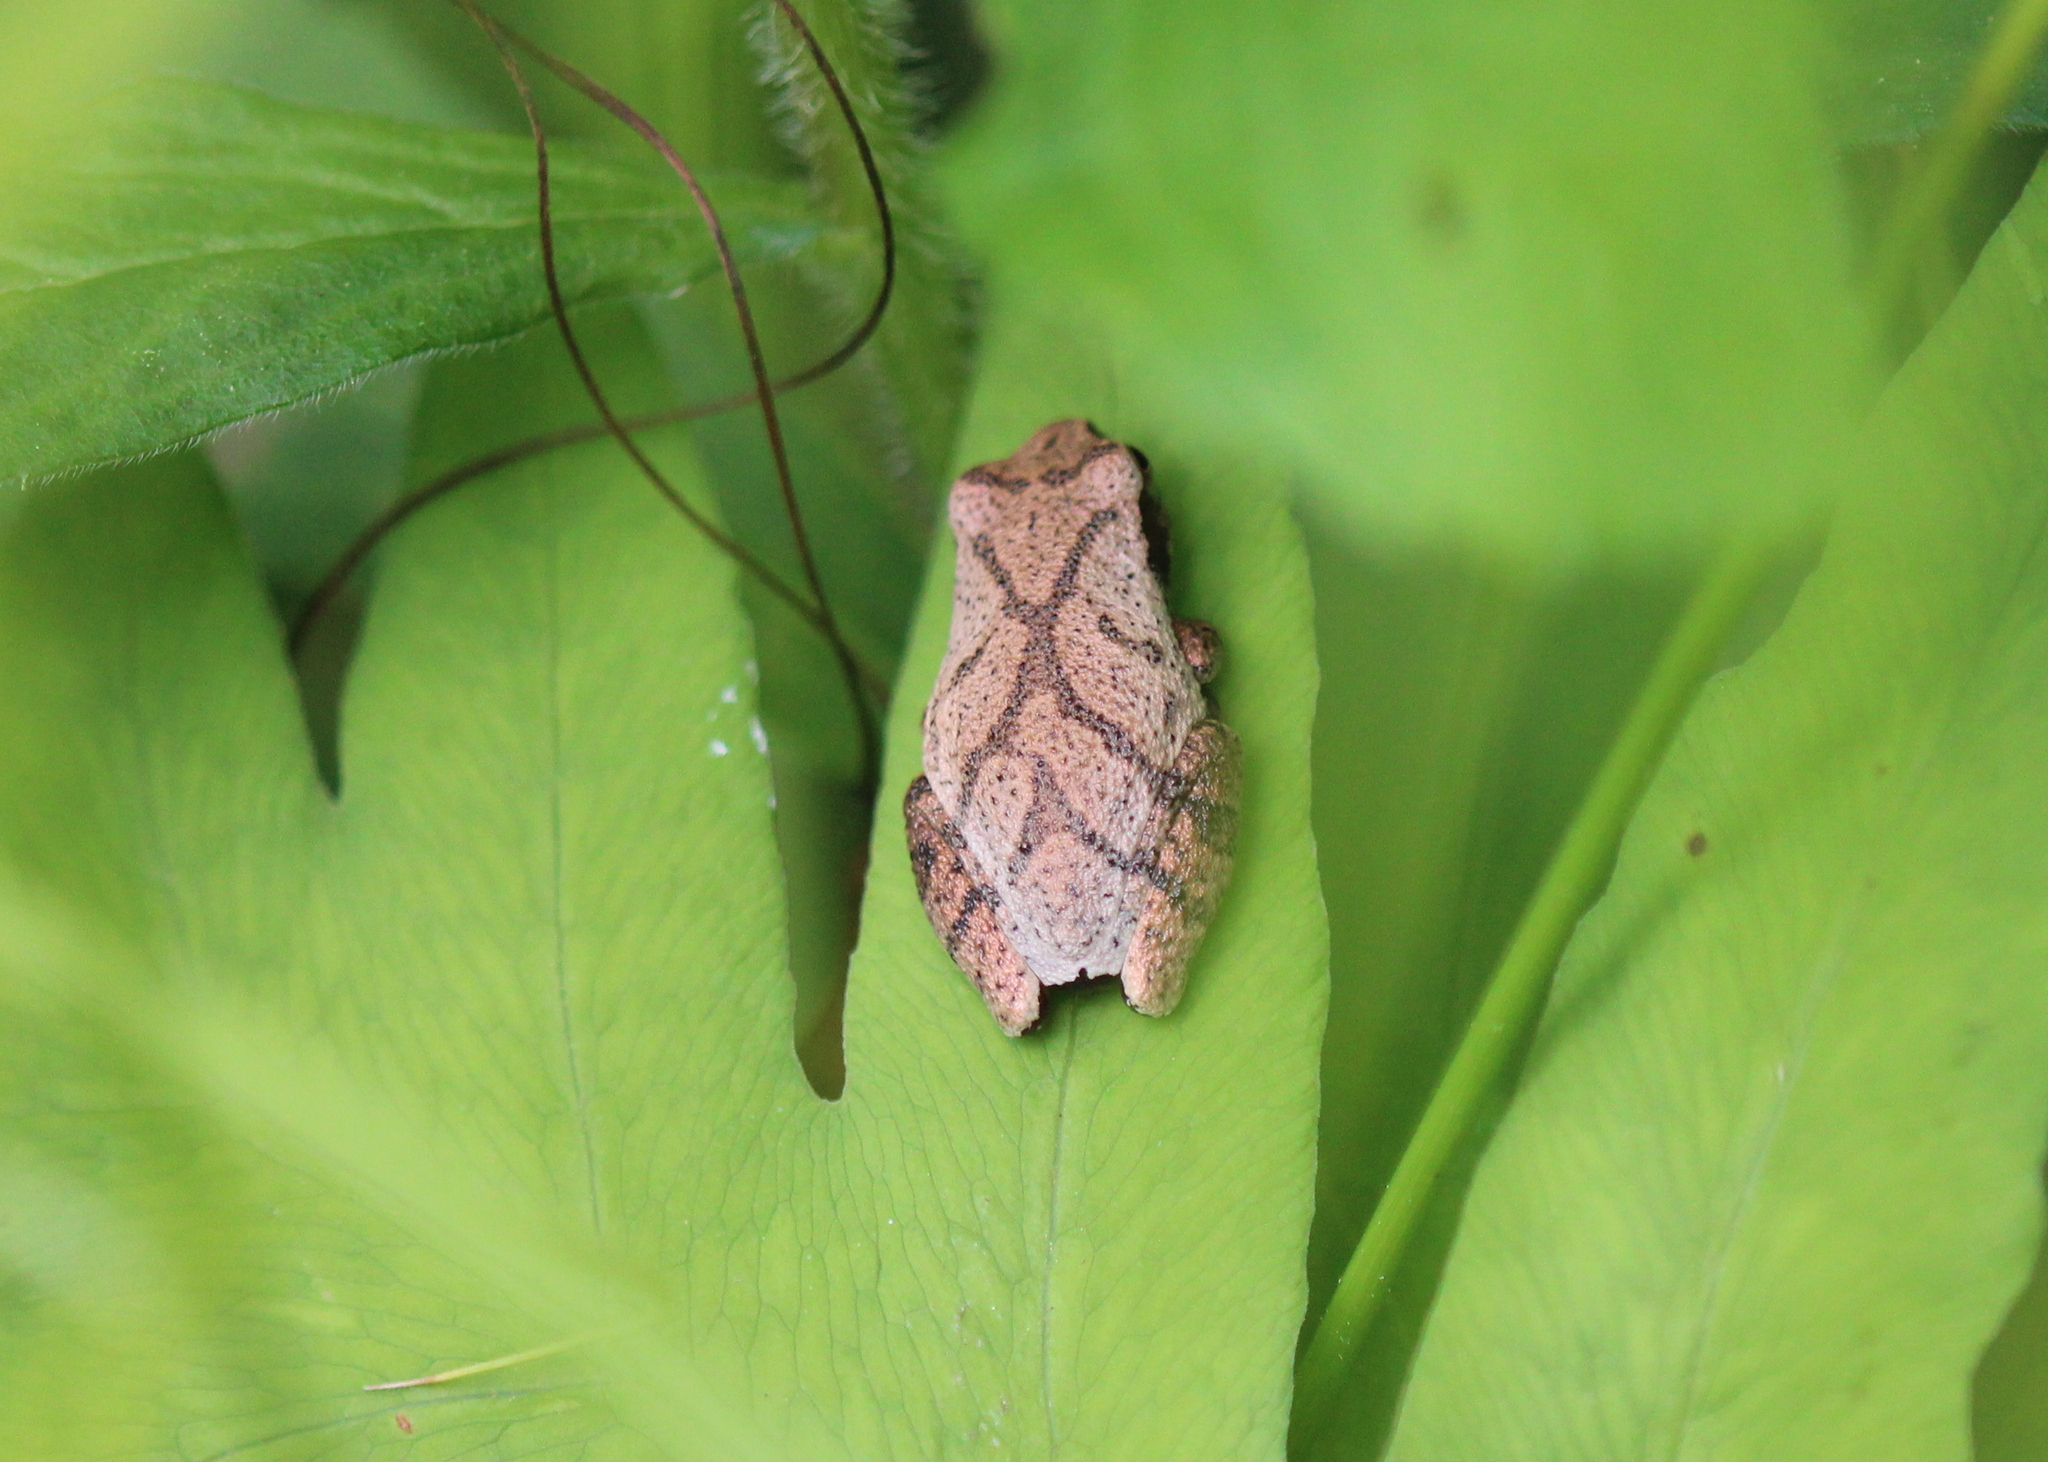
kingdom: Animalia
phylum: Chordata
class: Amphibia
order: Anura
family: Hylidae
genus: Pseudacris
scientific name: Pseudacris crucifer
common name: Spring peeper
